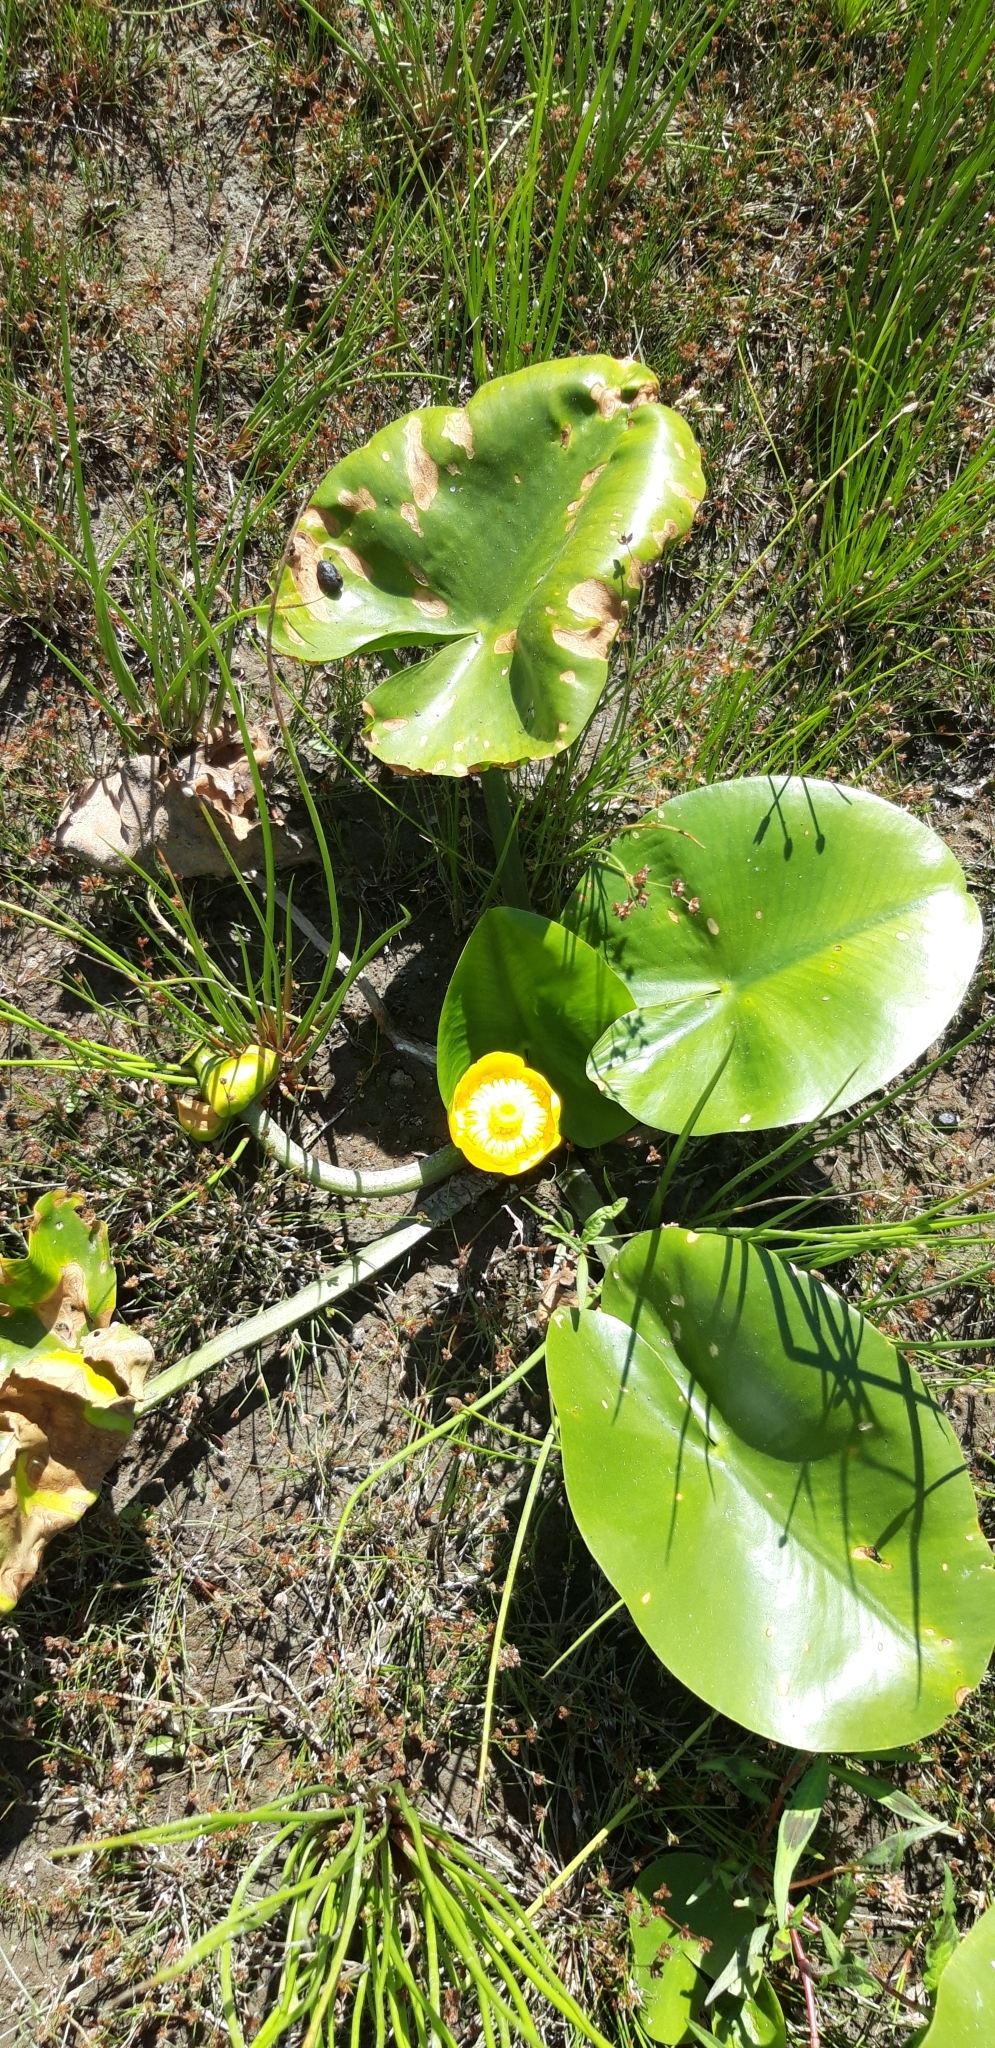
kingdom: Plantae
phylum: Tracheophyta
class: Magnoliopsida
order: Nymphaeales
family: Nymphaeaceae
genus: Nuphar
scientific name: Nuphar lutea
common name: Yellow water-lily
